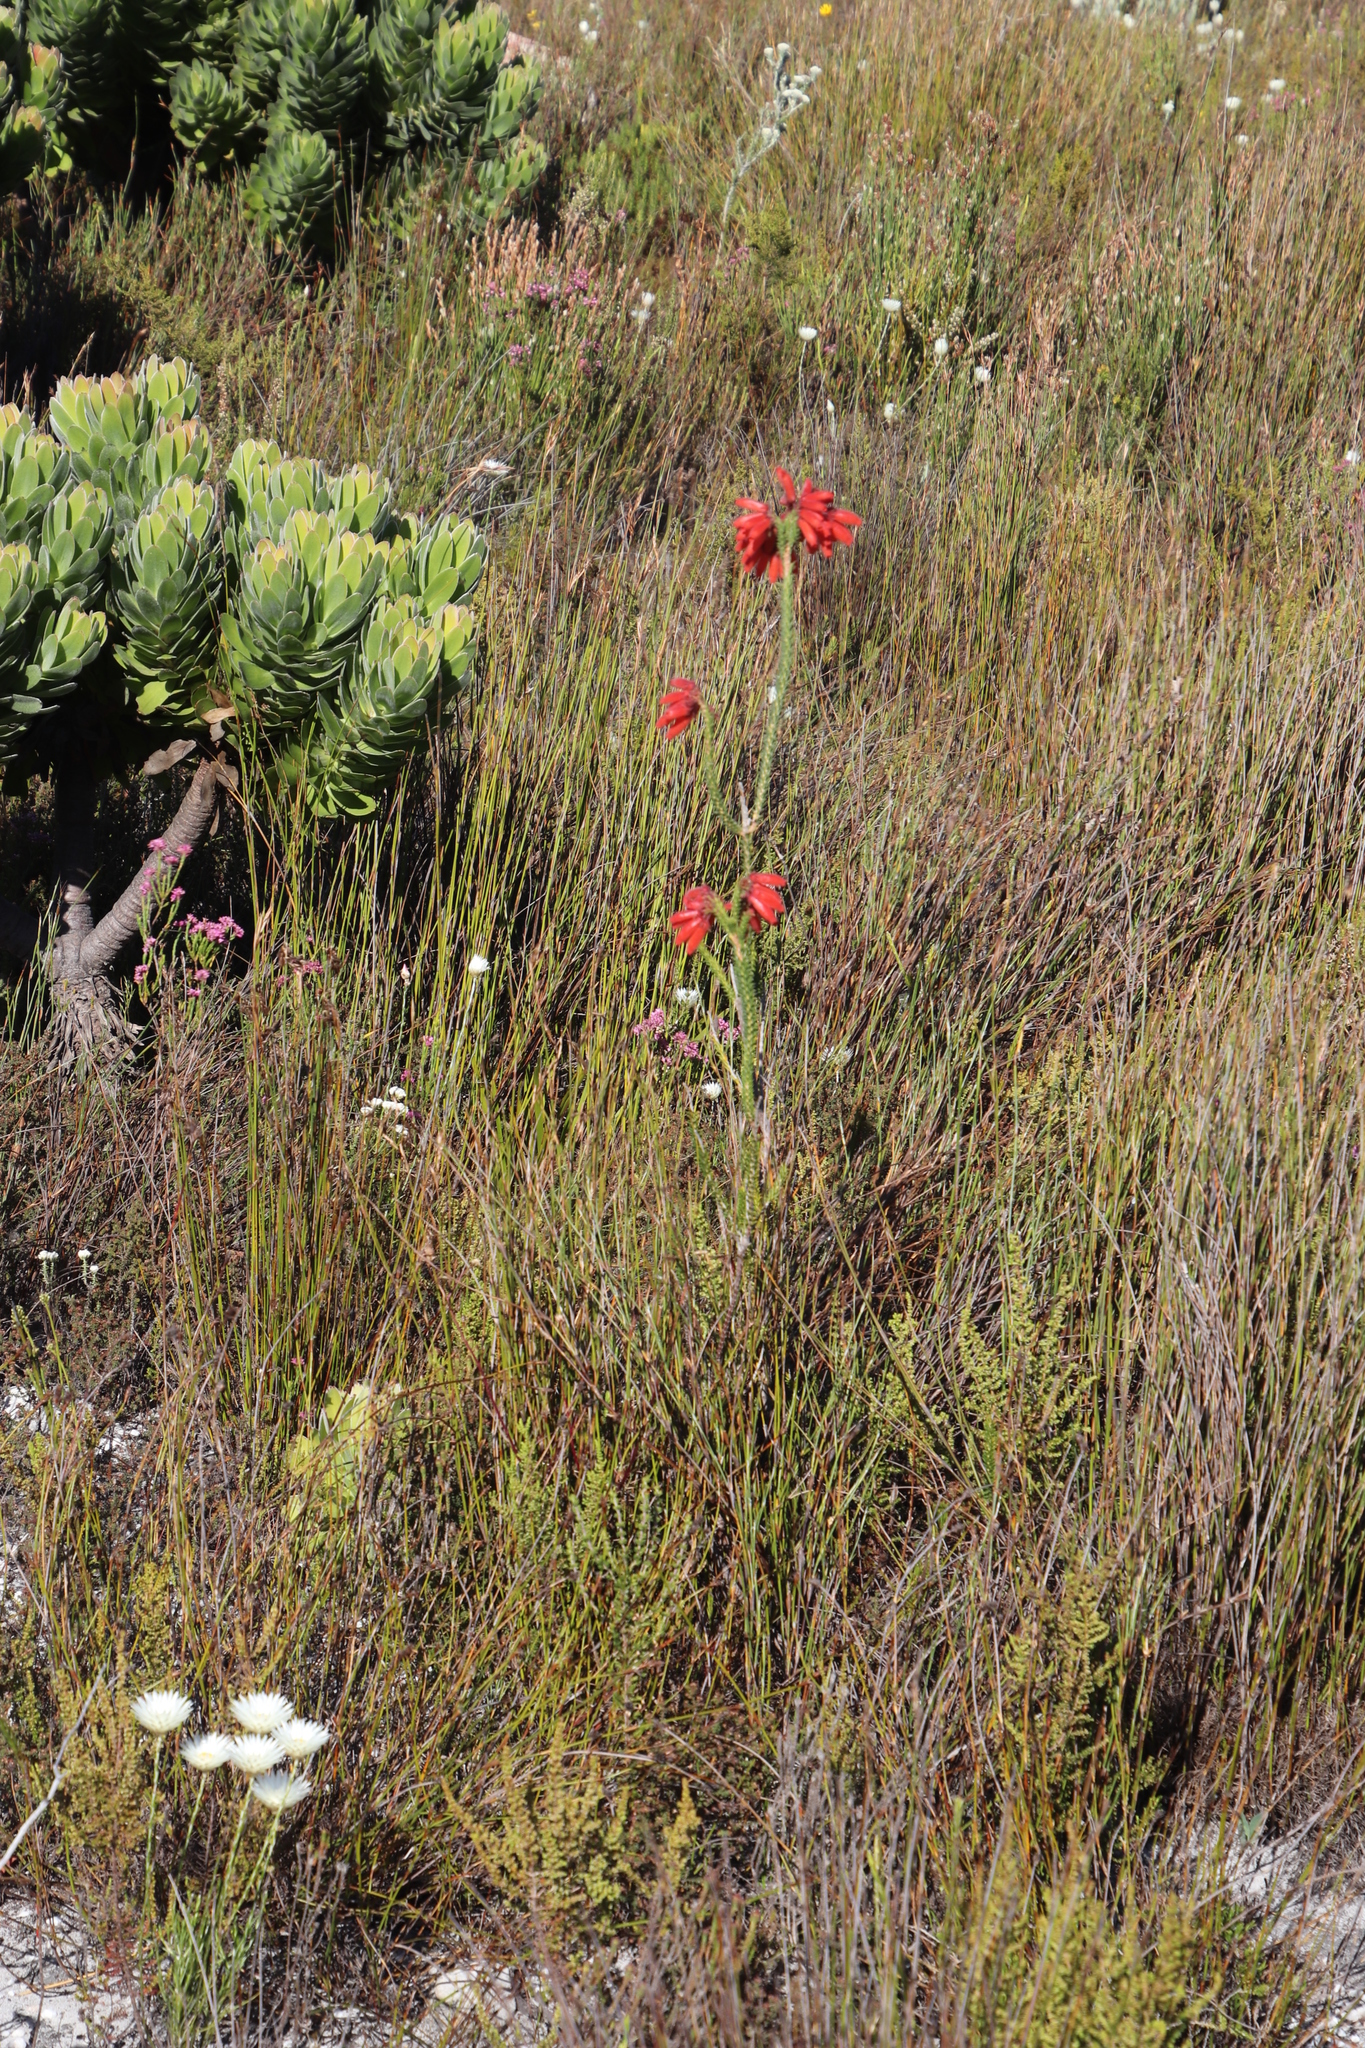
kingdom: Plantae
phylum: Tracheophyta
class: Magnoliopsida
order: Ericales
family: Ericaceae
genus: Erica
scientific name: Erica cerinthoides
